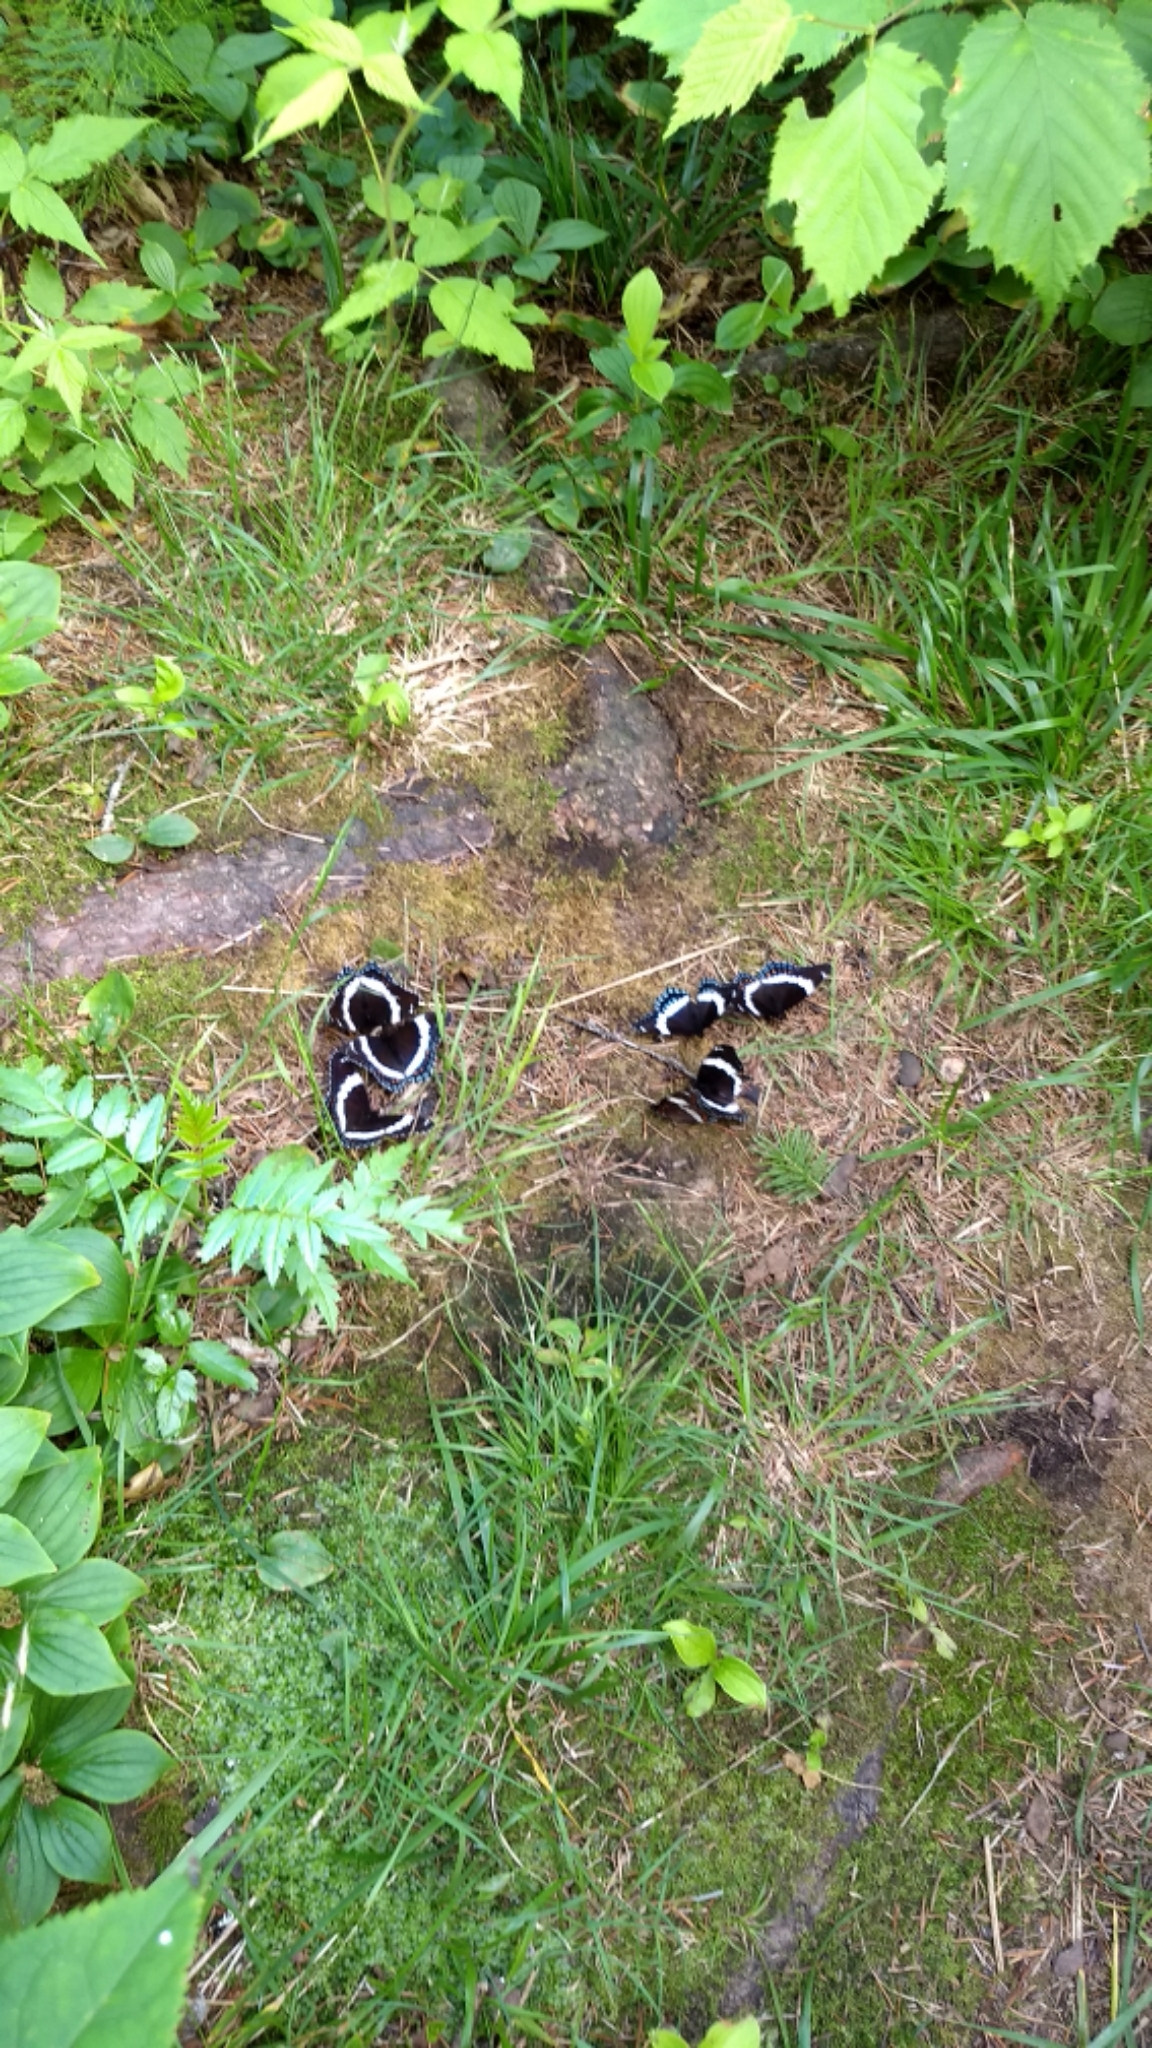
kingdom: Animalia
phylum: Arthropoda
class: Insecta
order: Lepidoptera
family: Nymphalidae
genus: Limenitis
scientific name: Limenitis arthemis
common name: Red-spotted admiral
